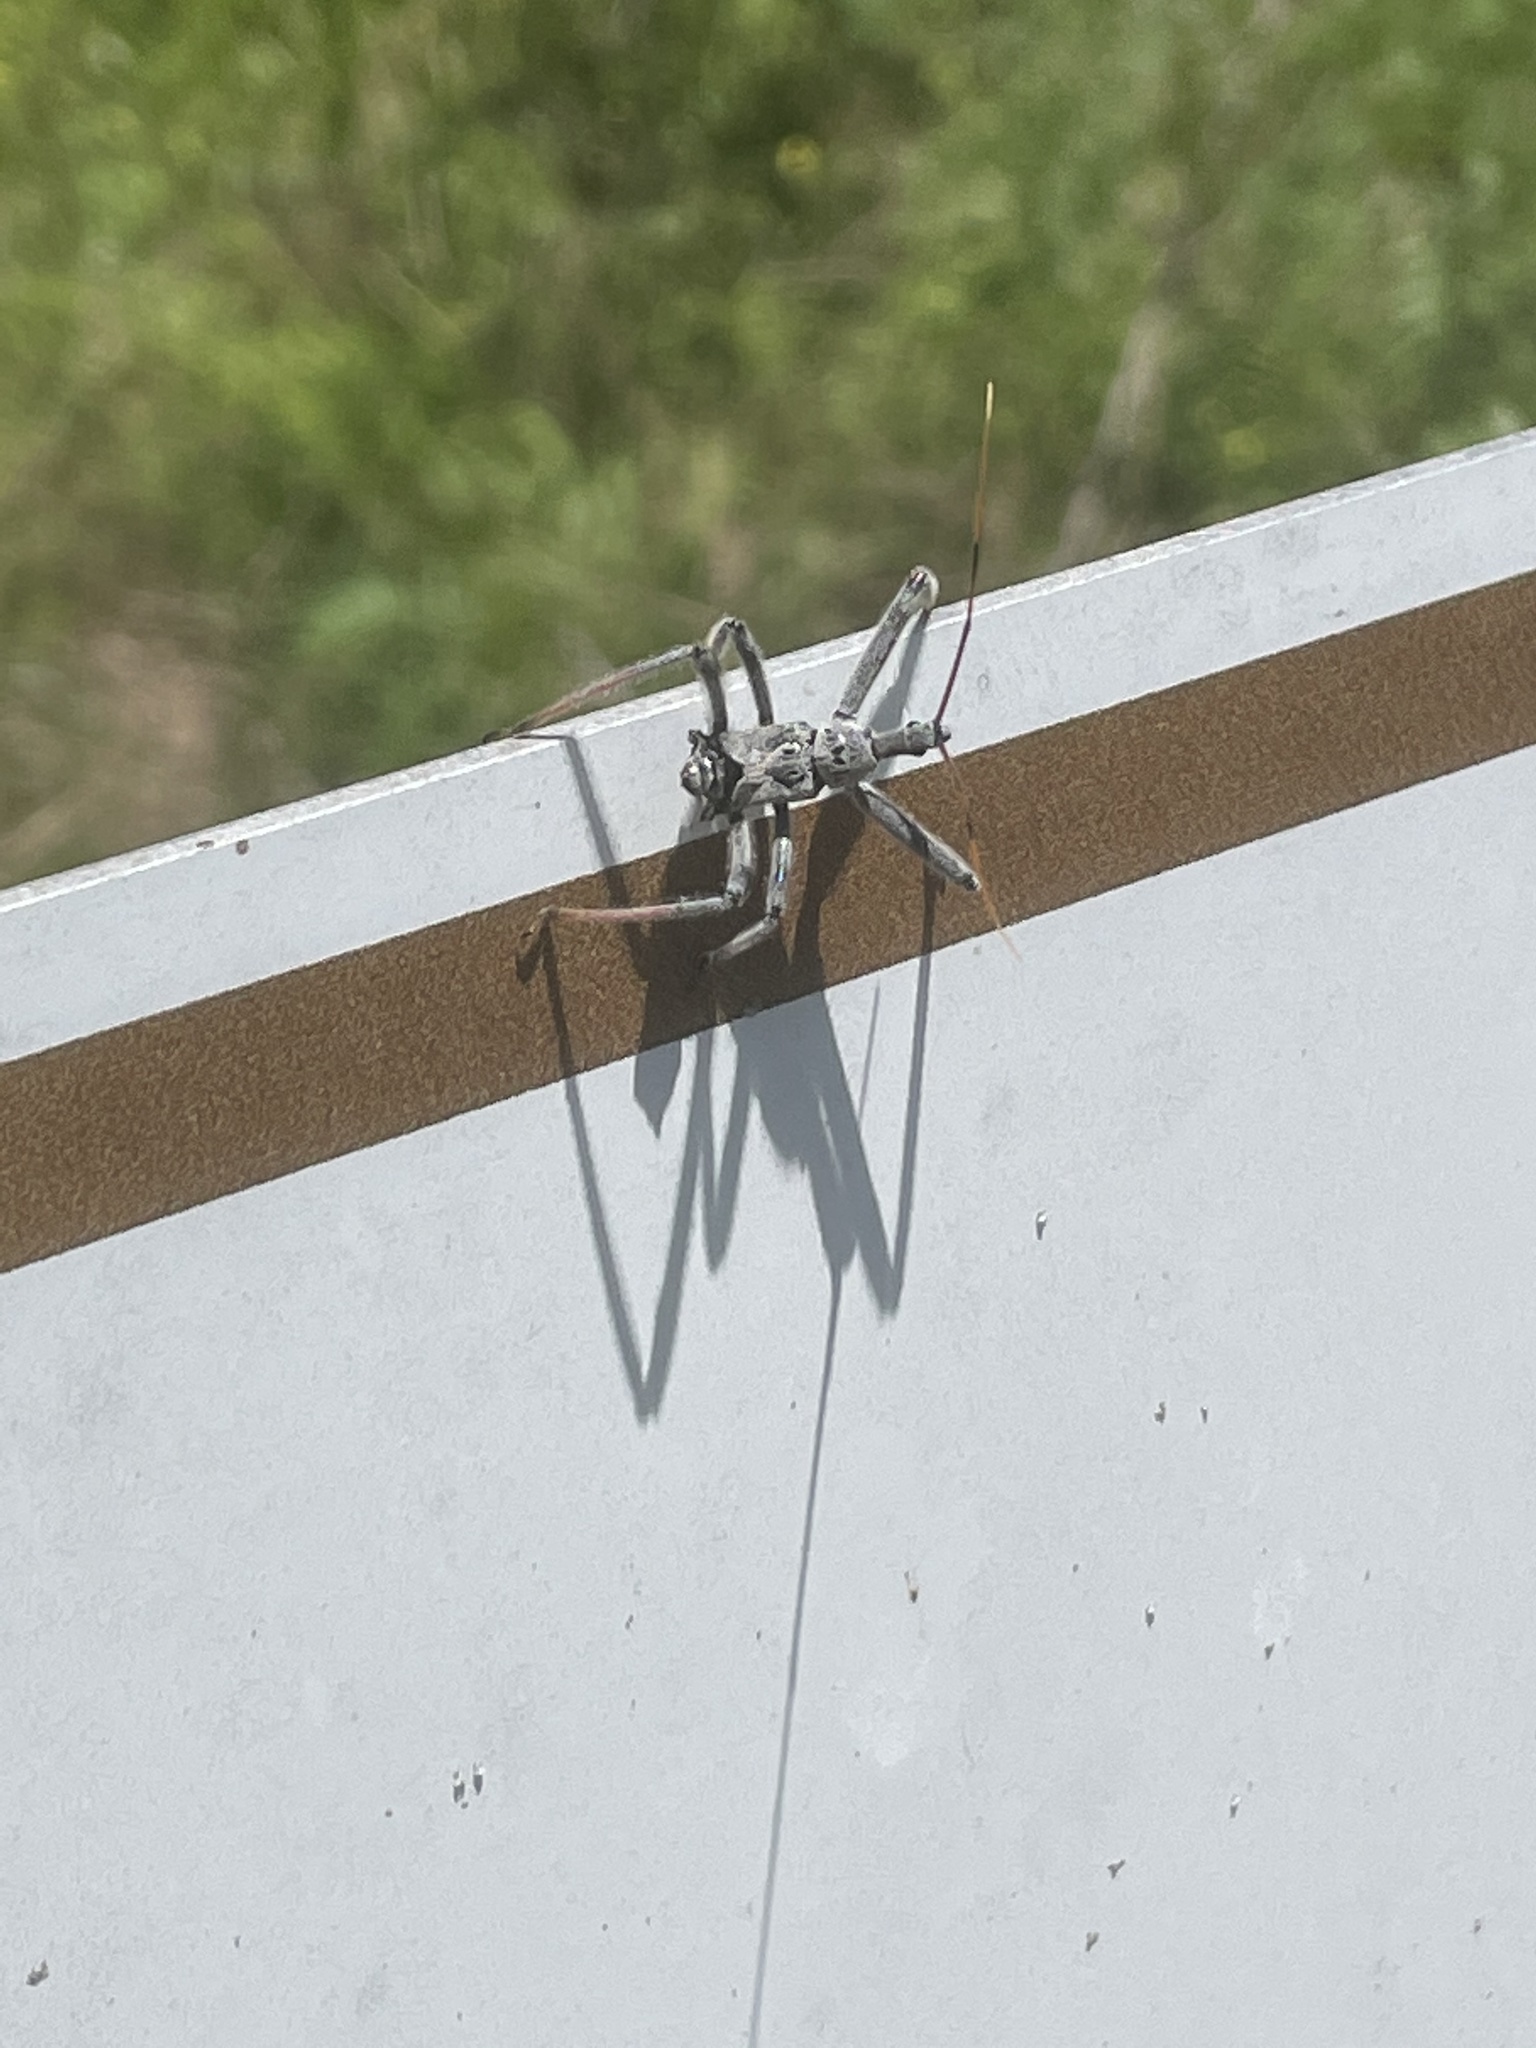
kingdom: Animalia
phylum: Arthropoda
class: Insecta
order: Hemiptera
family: Reduviidae
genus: Arilus
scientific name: Arilus cristatus
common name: North american wheel bug
